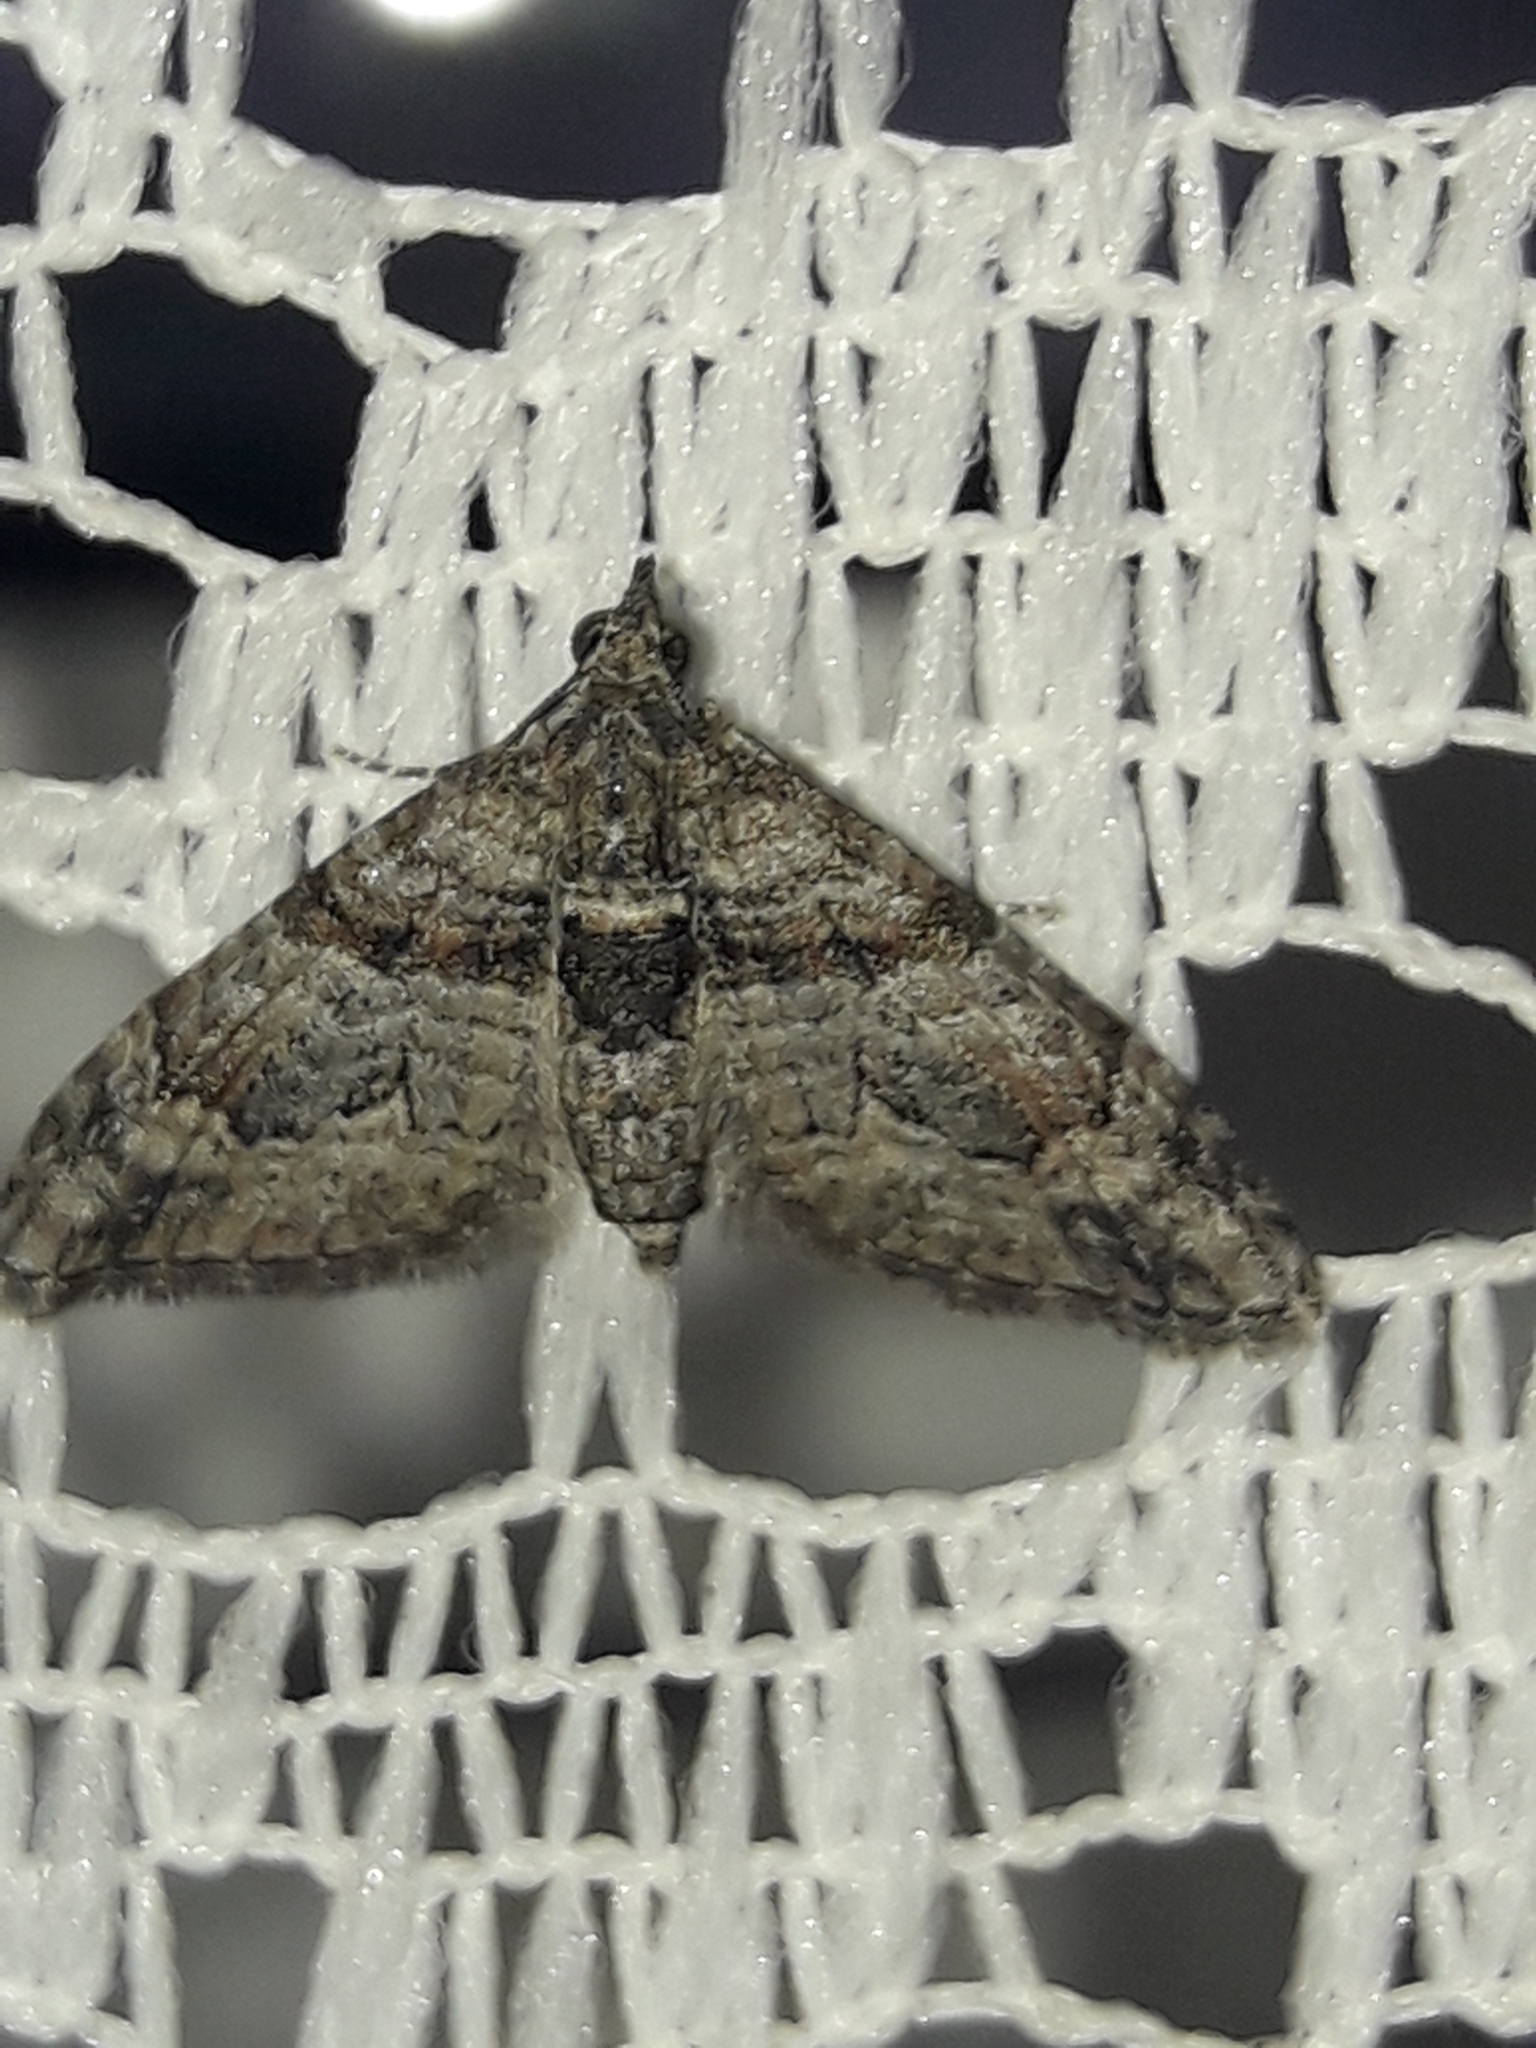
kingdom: Animalia
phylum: Arthropoda
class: Insecta
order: Lepidoptera
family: Geometridae
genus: Phrissogonus
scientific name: Phrissogonus laticostata
